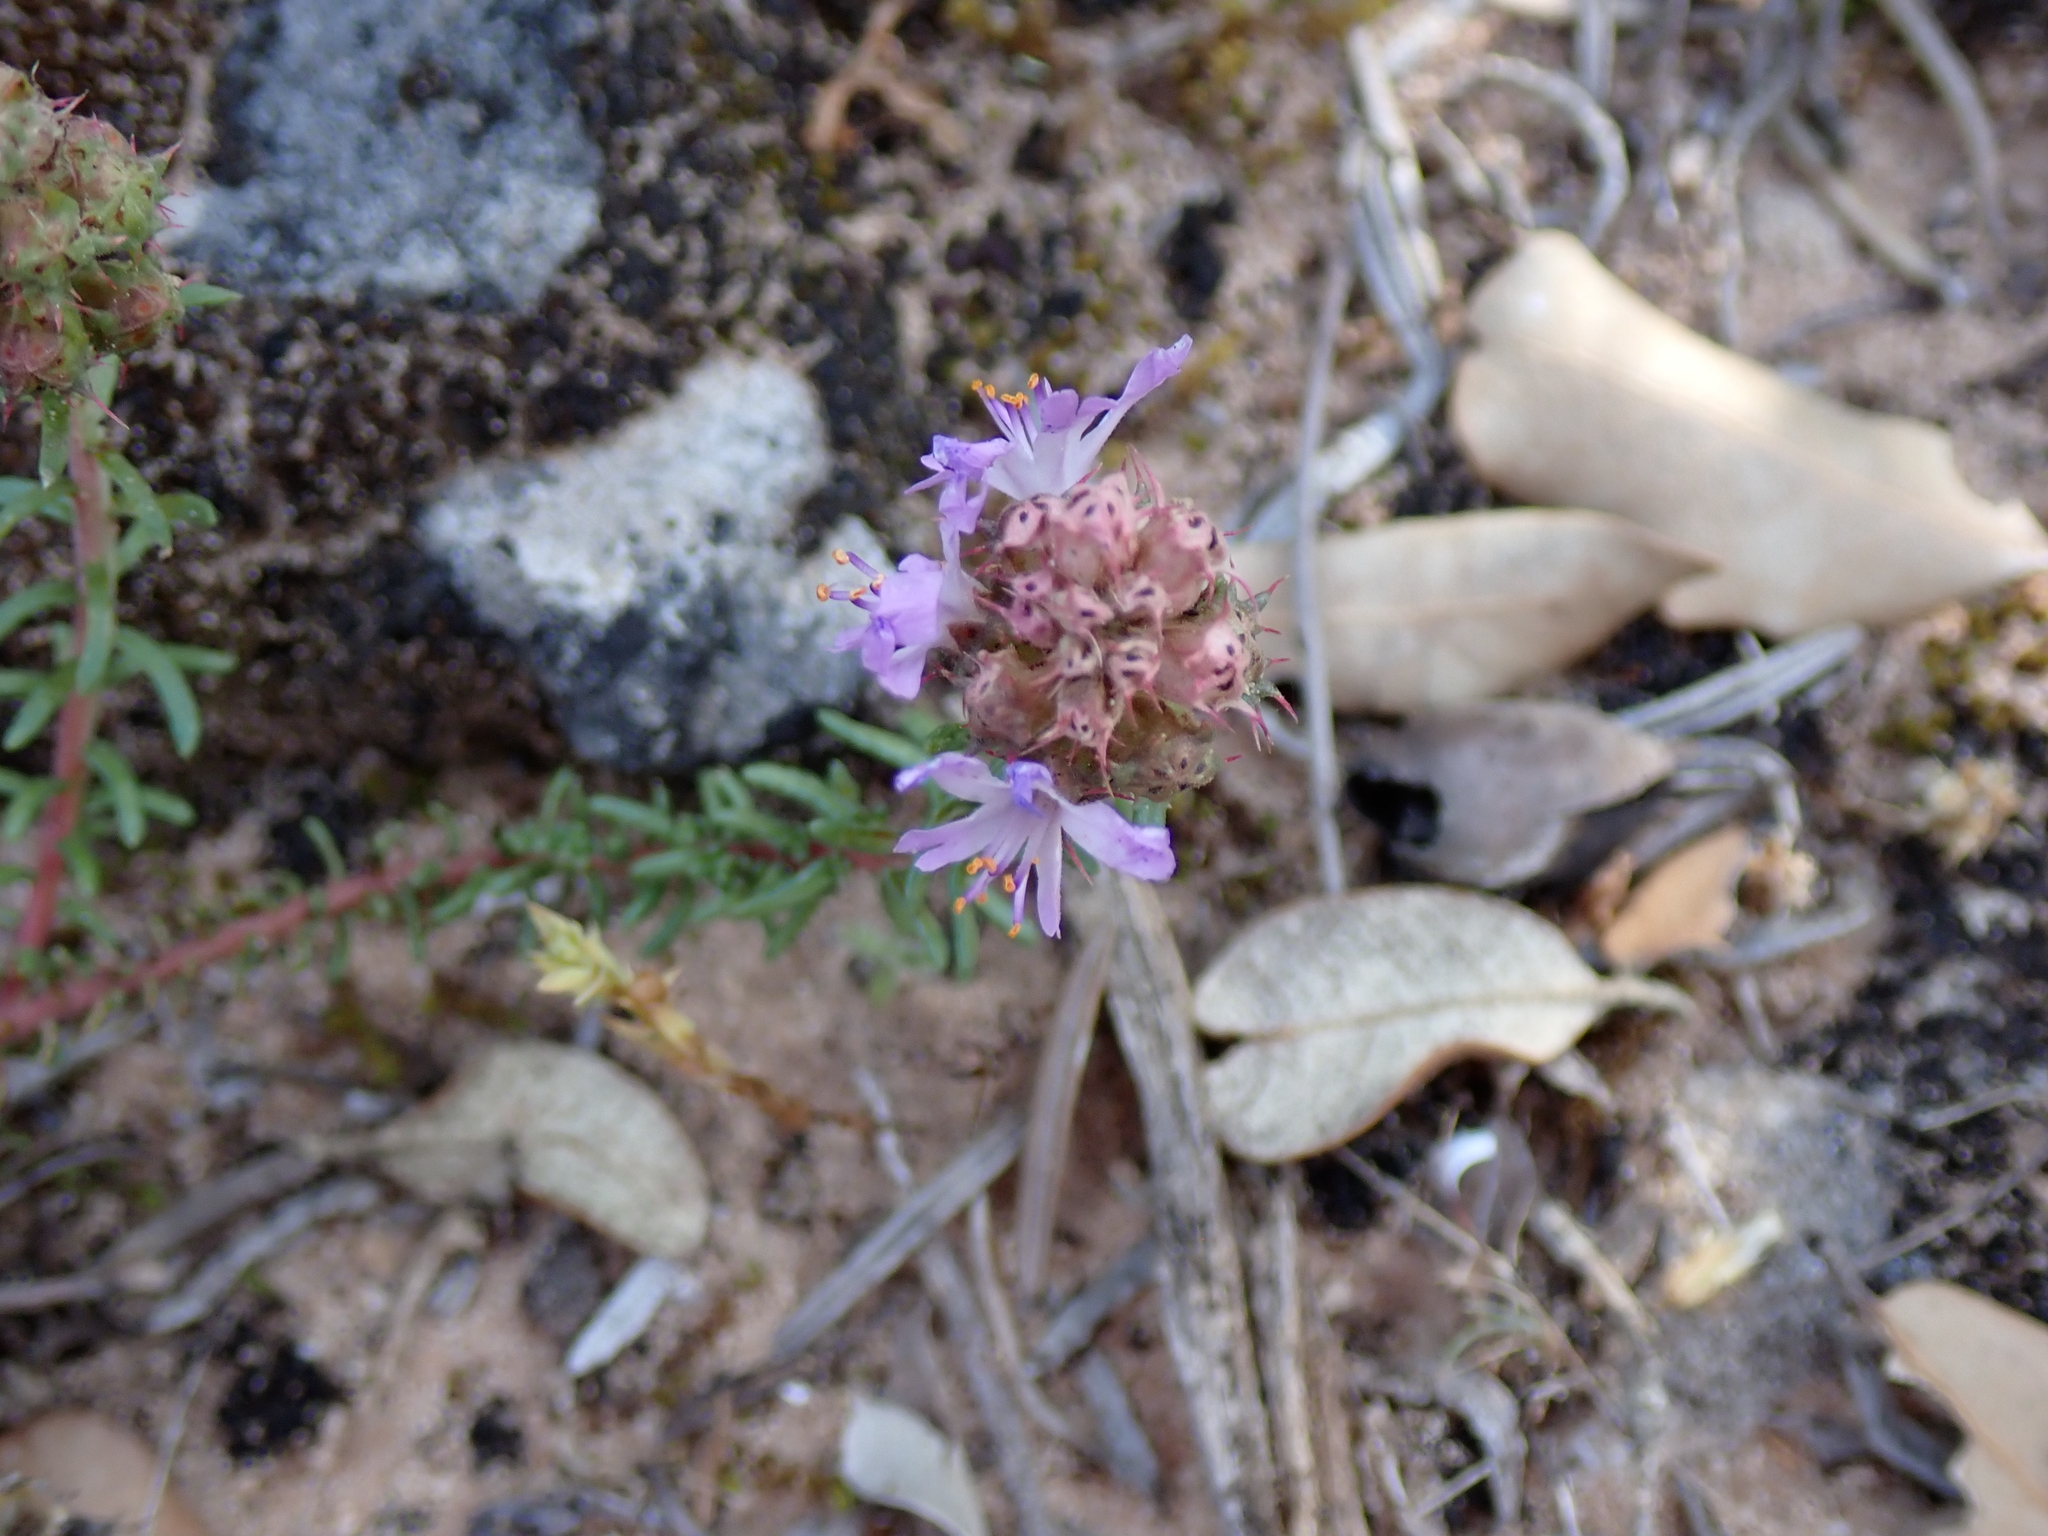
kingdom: Plantae
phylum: Tracheophyta
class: Magnoliopsida
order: Ericales
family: Primulaceae
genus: Coris
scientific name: Coris monspeliensis
